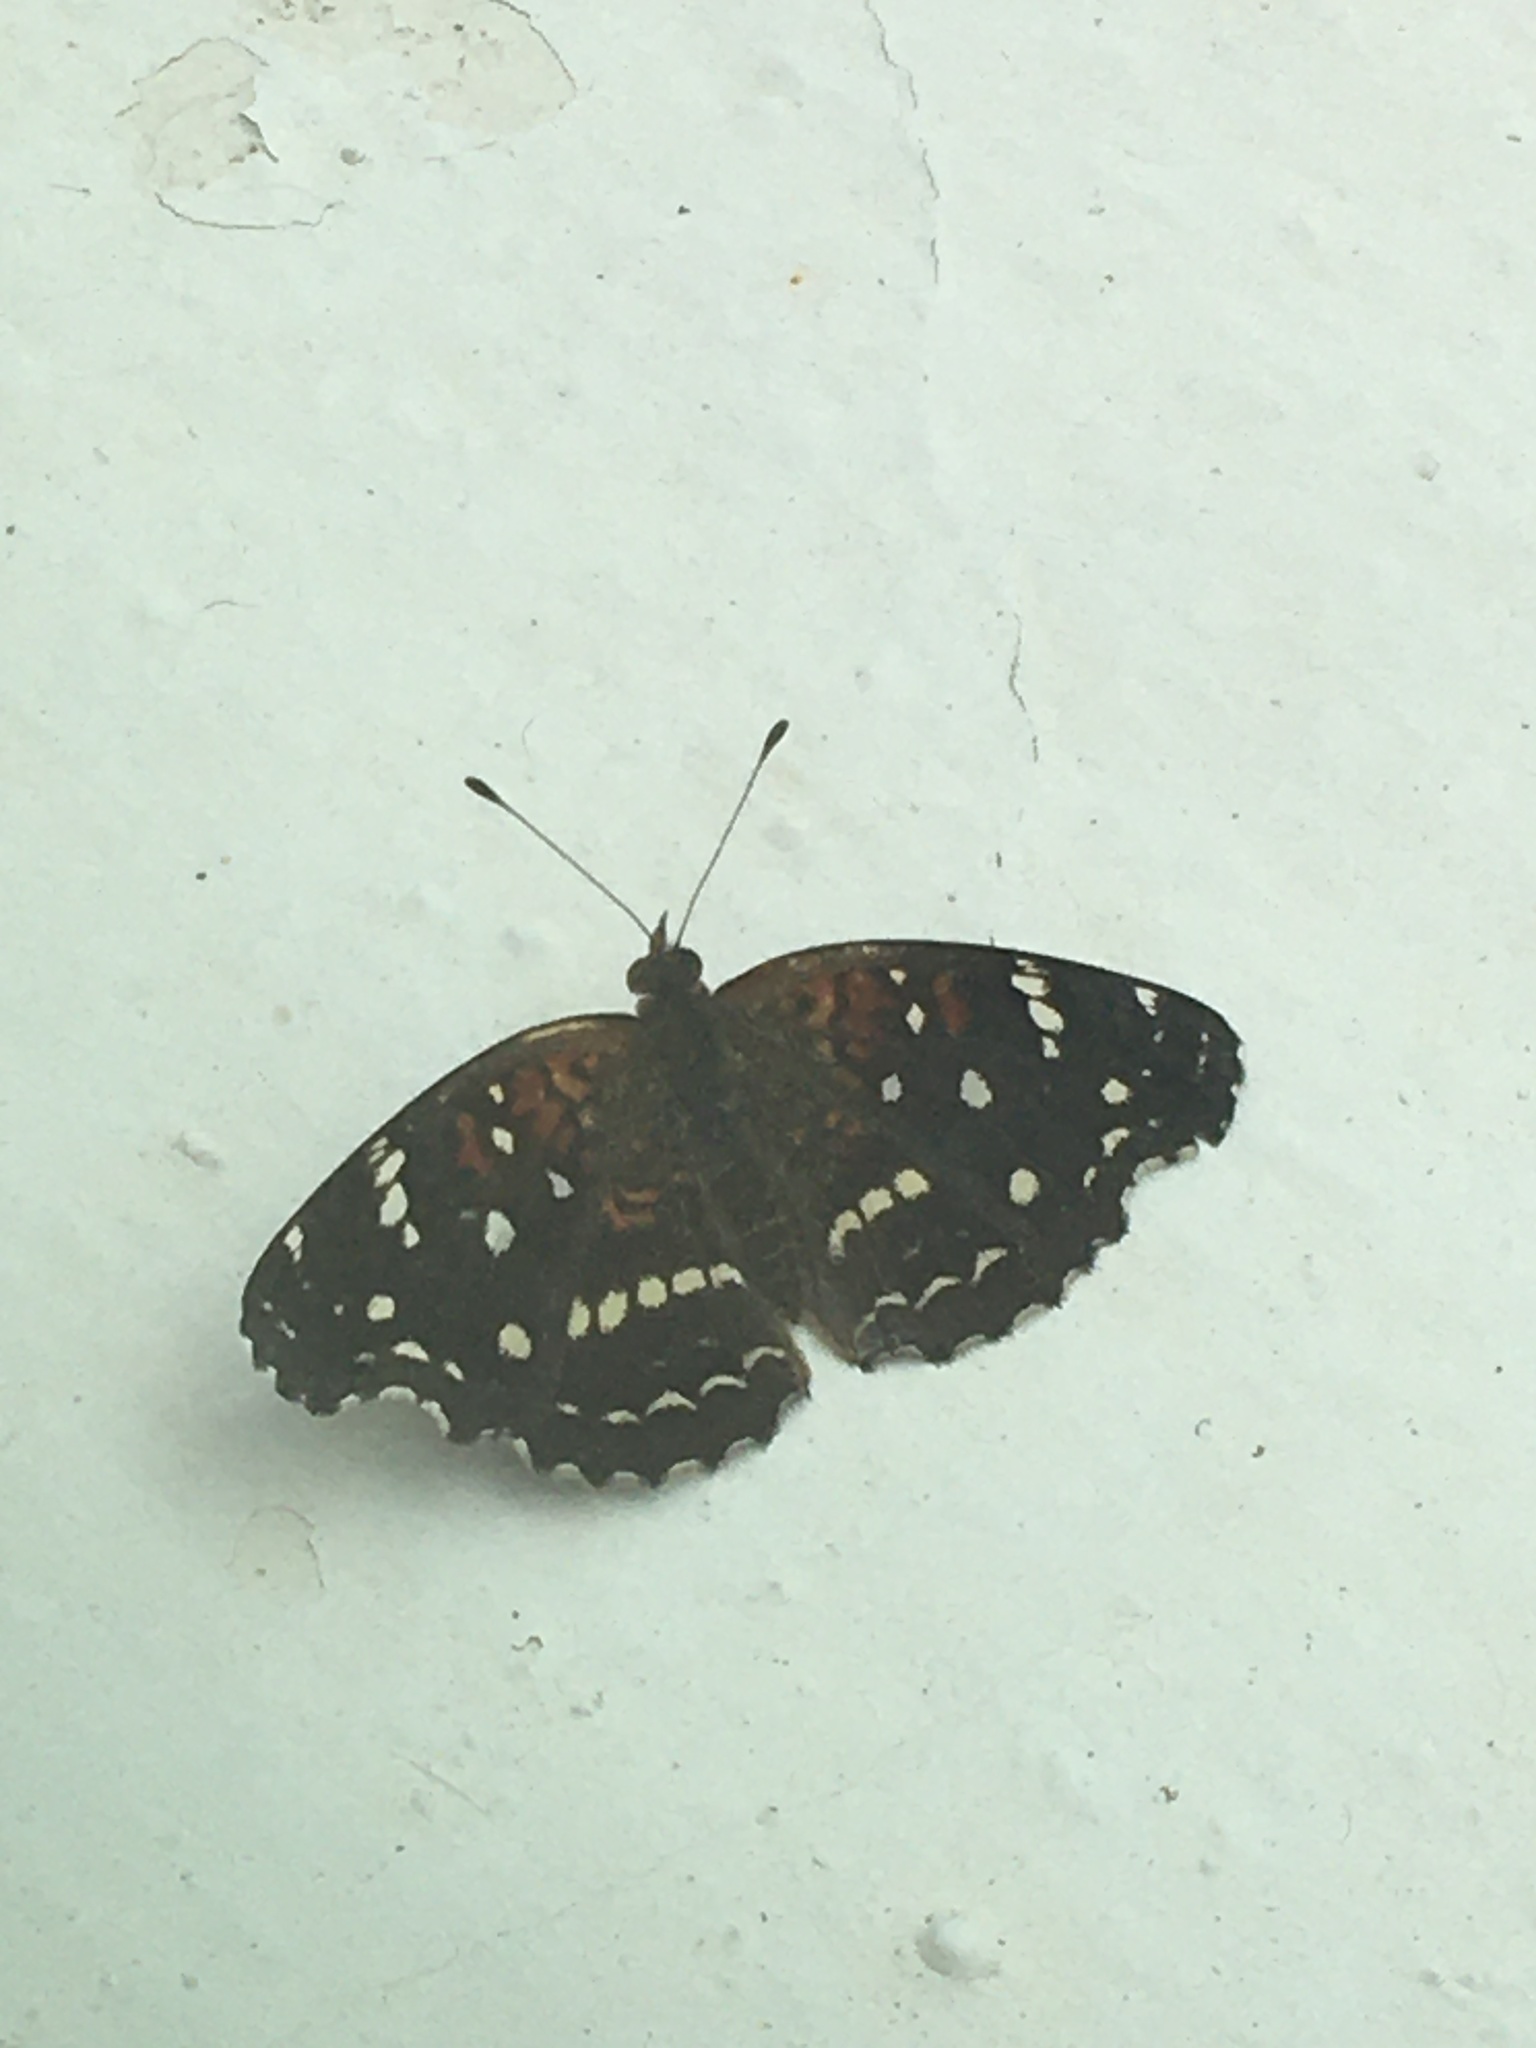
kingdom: Animalia
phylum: Arthropoda
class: Insecta
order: Lepidoptera
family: Nymphalidae
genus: Anthanassa
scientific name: Anthanassa texana
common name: Texan crescent
